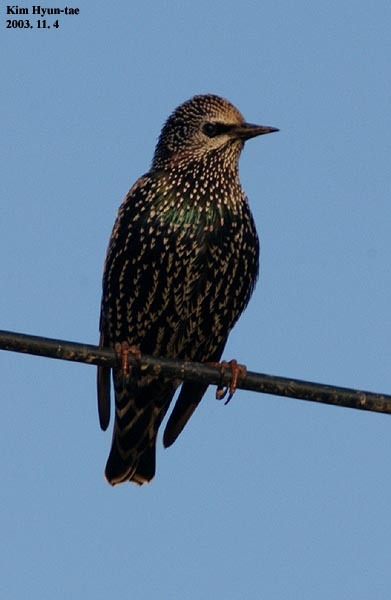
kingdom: Animalia
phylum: Chordata
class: Aves
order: Passeriformes
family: Sturnidae
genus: Sturnus
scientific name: Sturnus vulgaris
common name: Common starling
